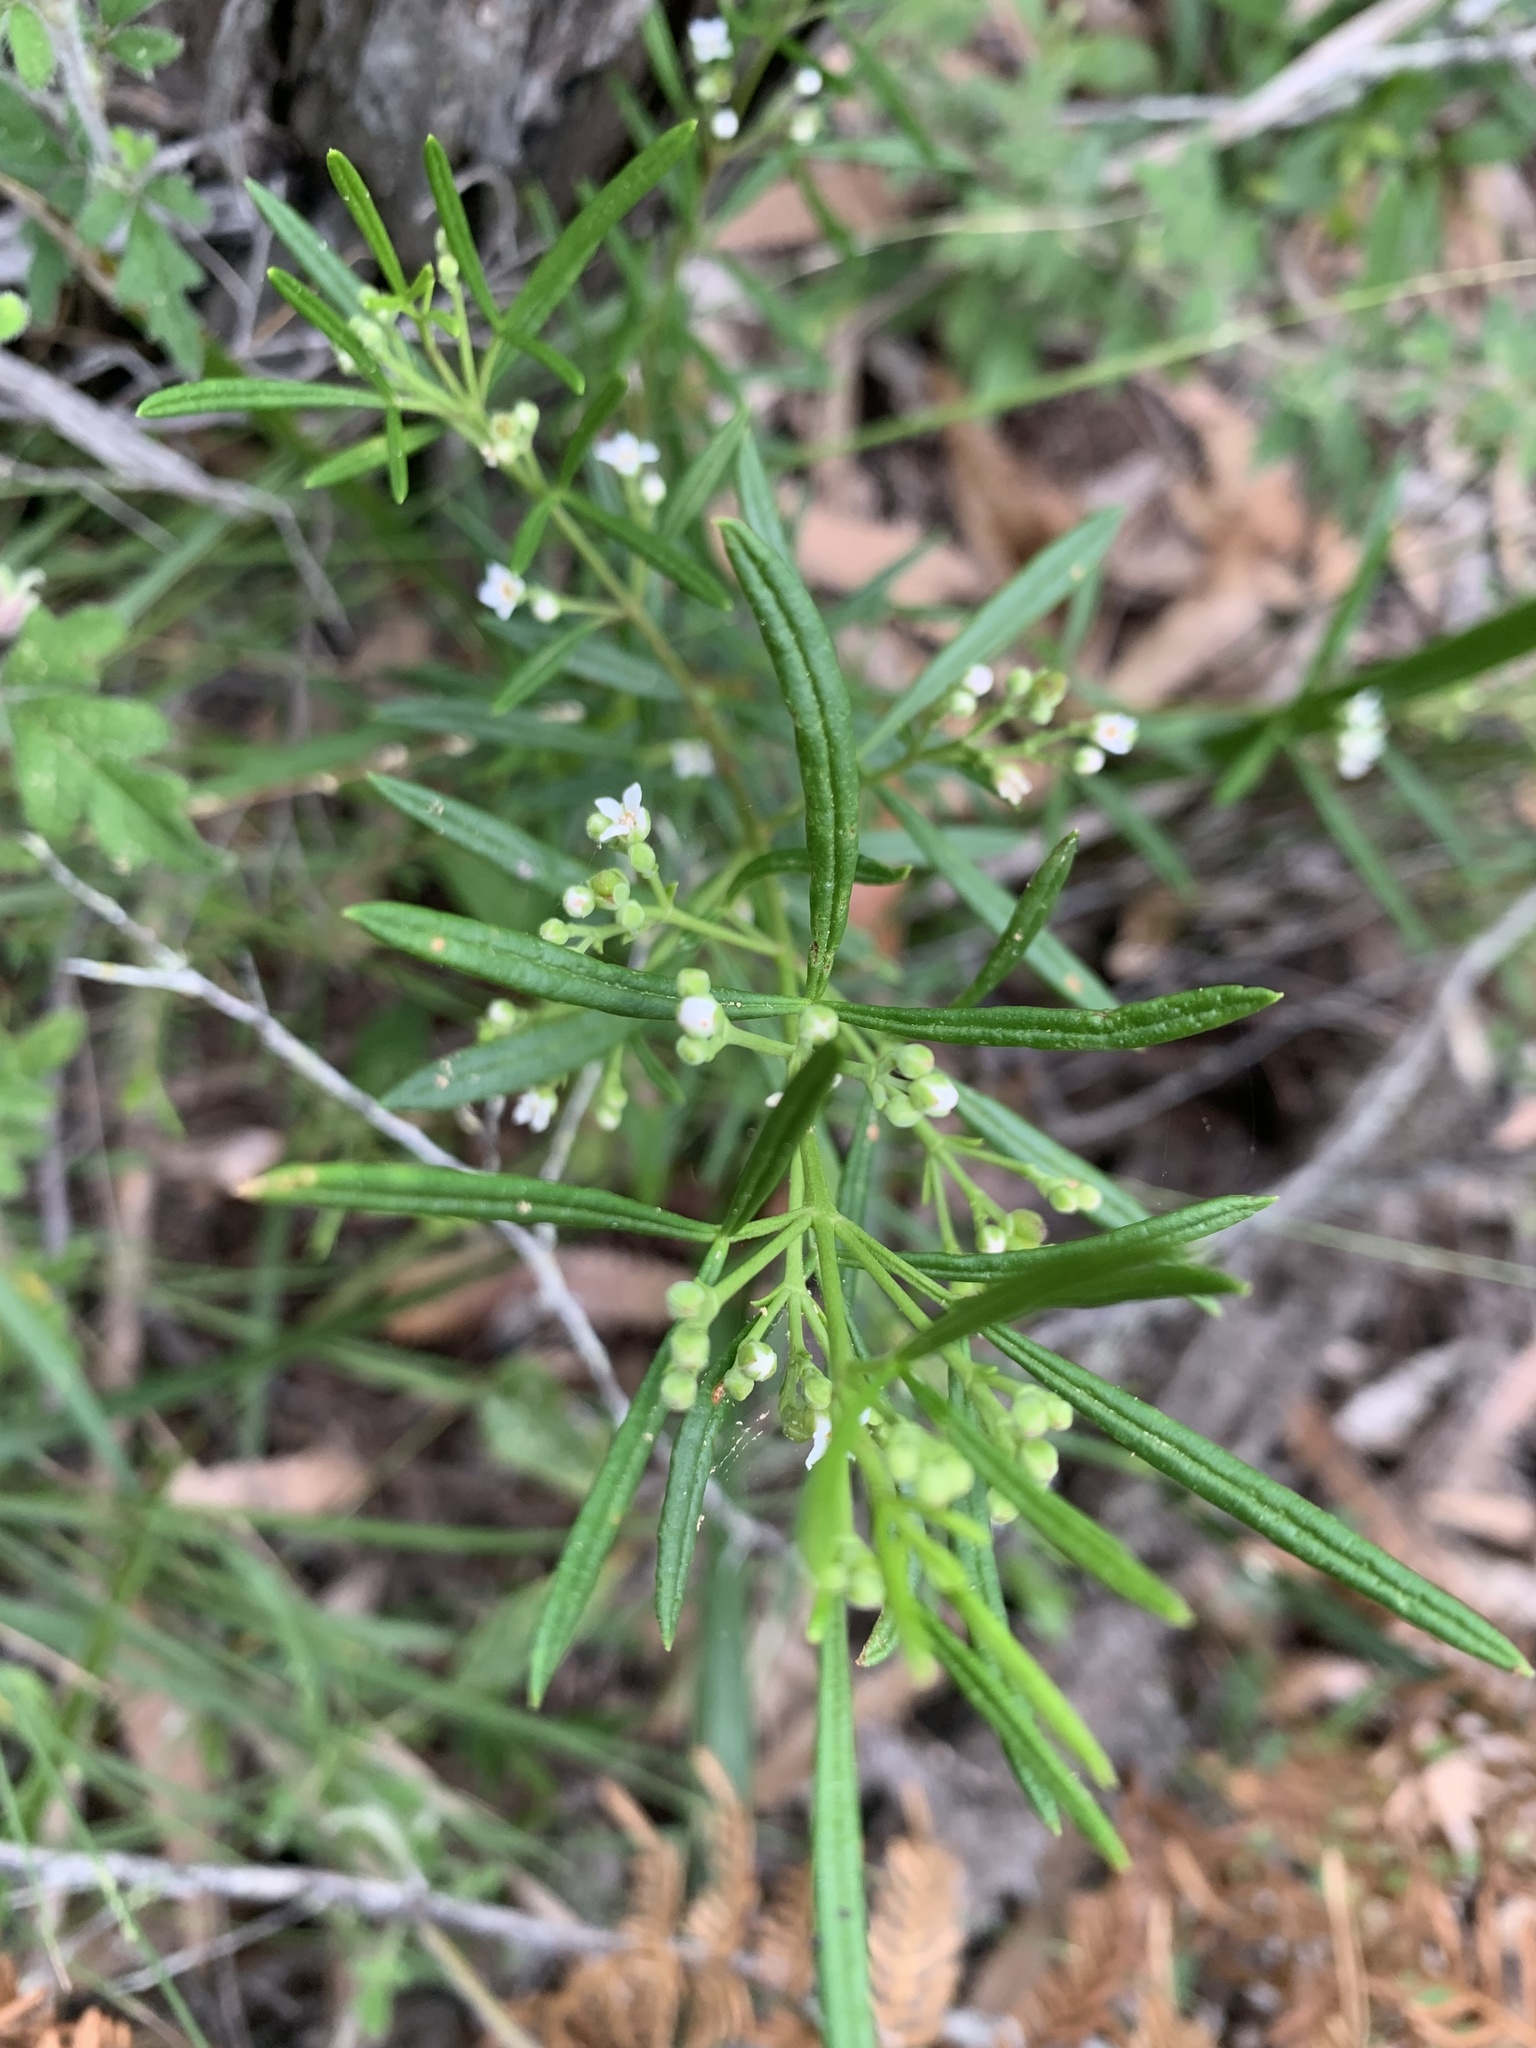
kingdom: Plantae
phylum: Tracheophyta
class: Magnoliopsida
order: Sapindales
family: Rutaceae
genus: Zieria
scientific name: Zieria laevigata
